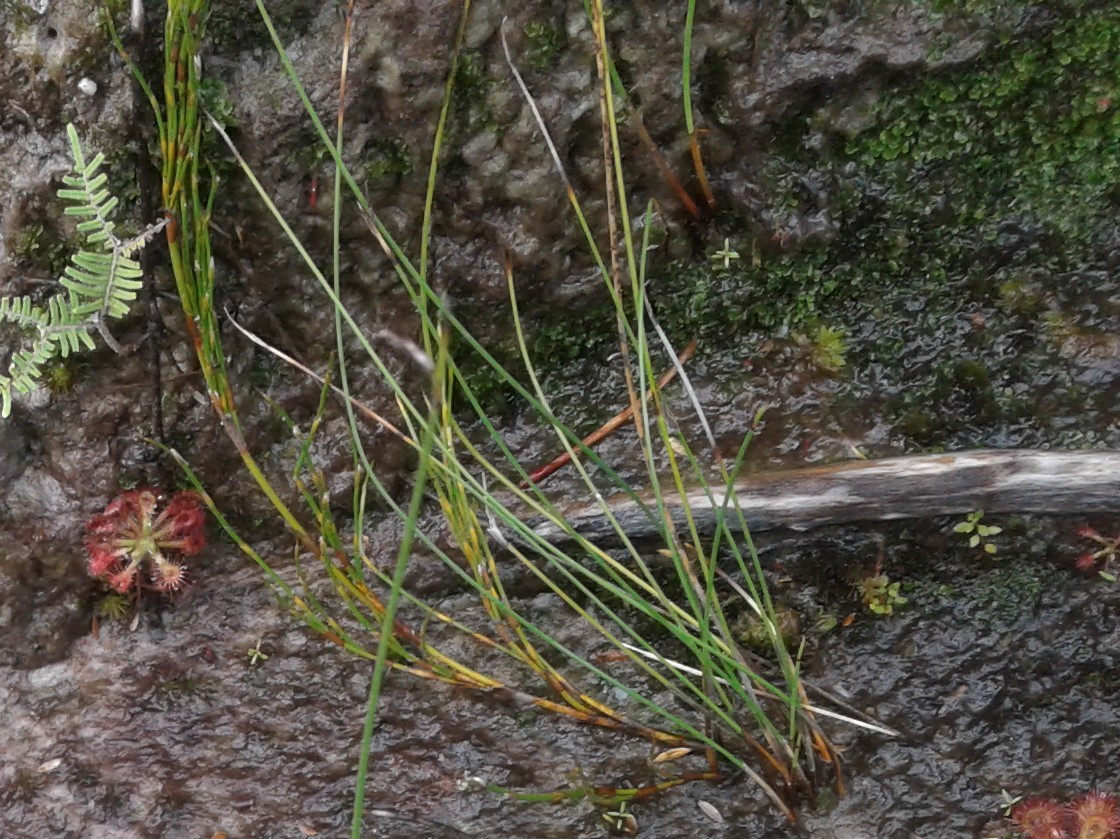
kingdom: Plantae
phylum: Tracheophyta
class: Liliopsida
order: Poales
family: Restionaceae
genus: Apodasmia
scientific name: Apodasmia similis
